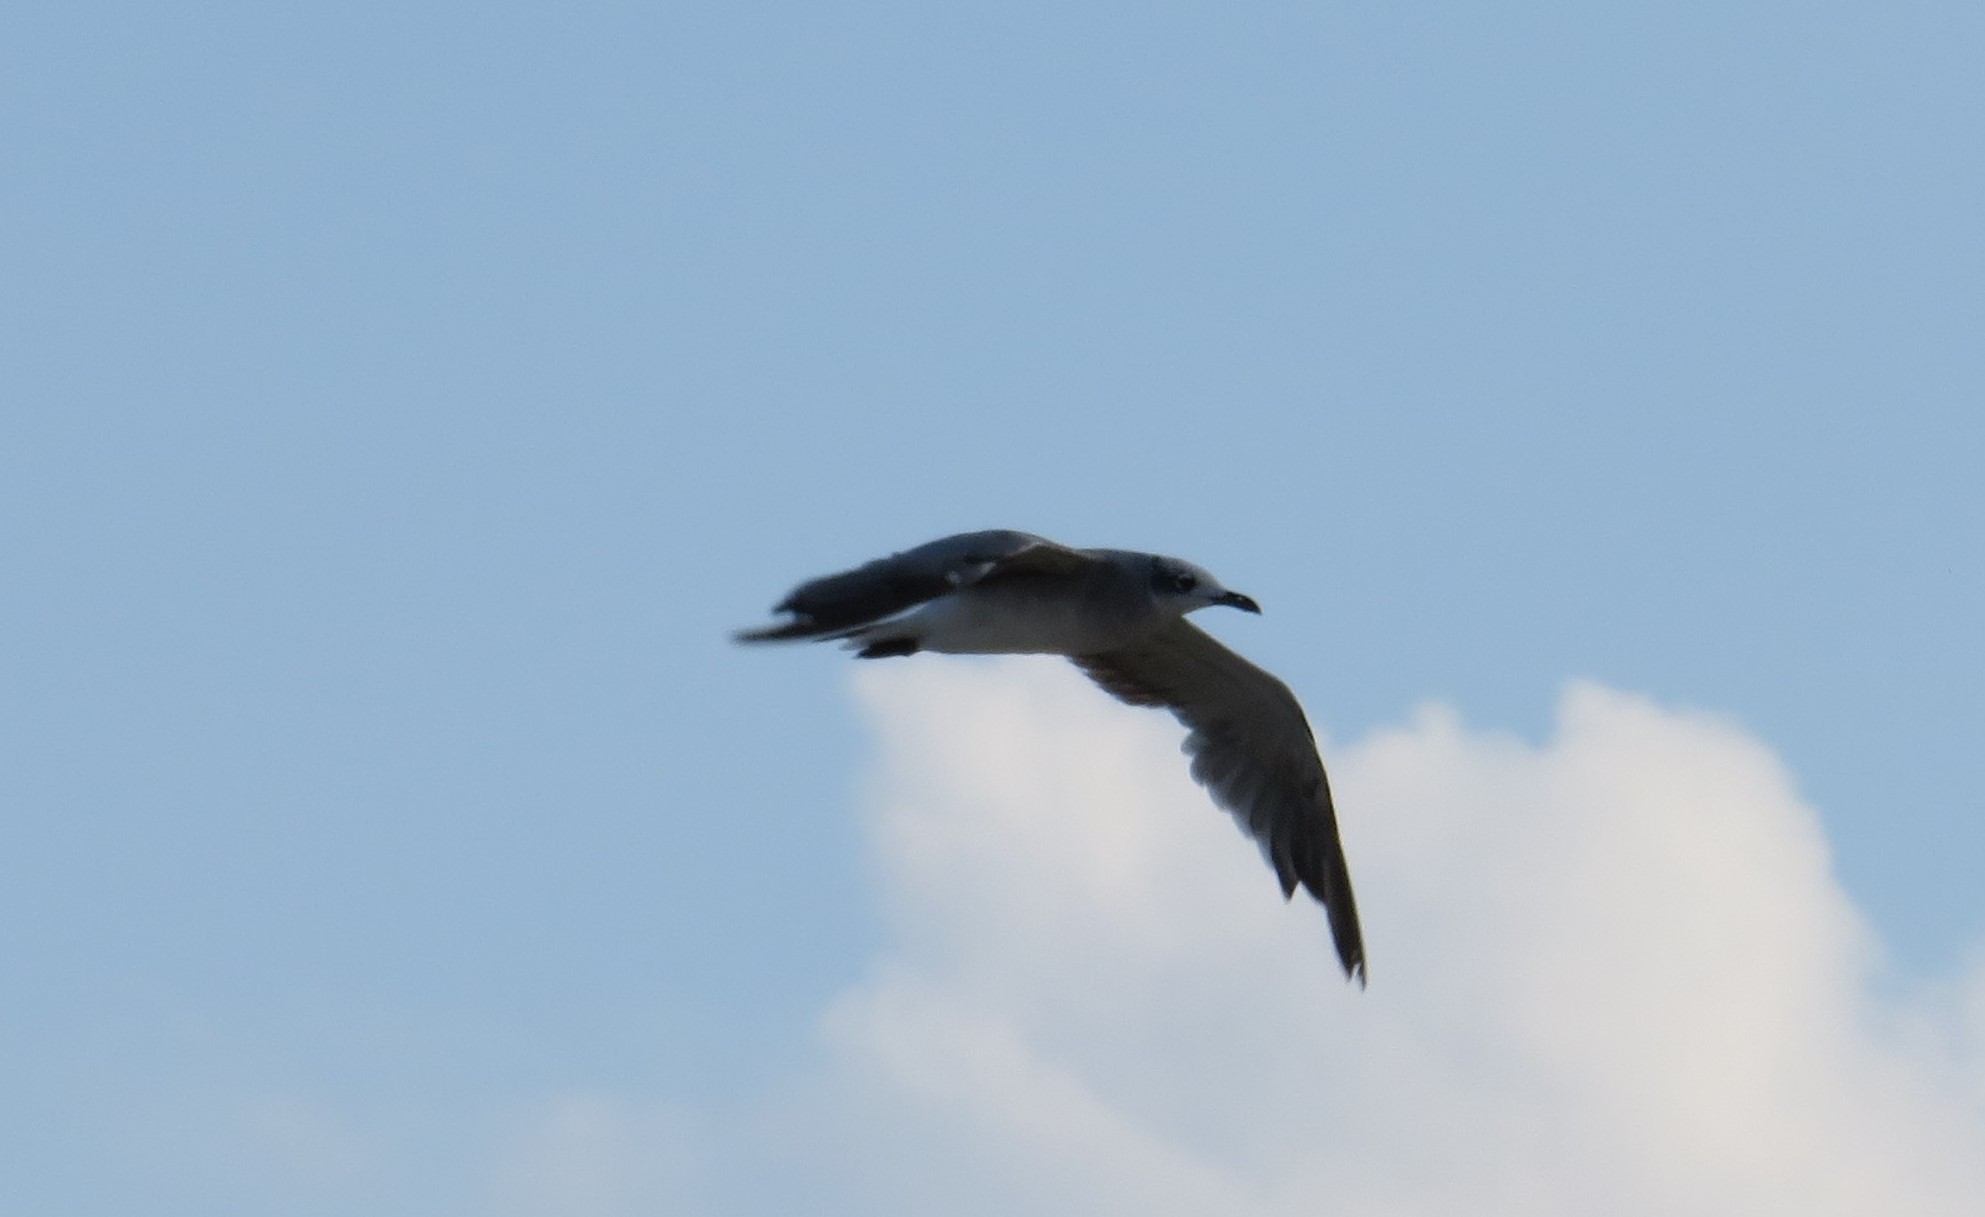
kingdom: Animalia
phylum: Chordata
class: Aves
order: Charadriiformes
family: Laridae
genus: Leucophaeus
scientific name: Leucophaeus atricilla
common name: Laughing gull
